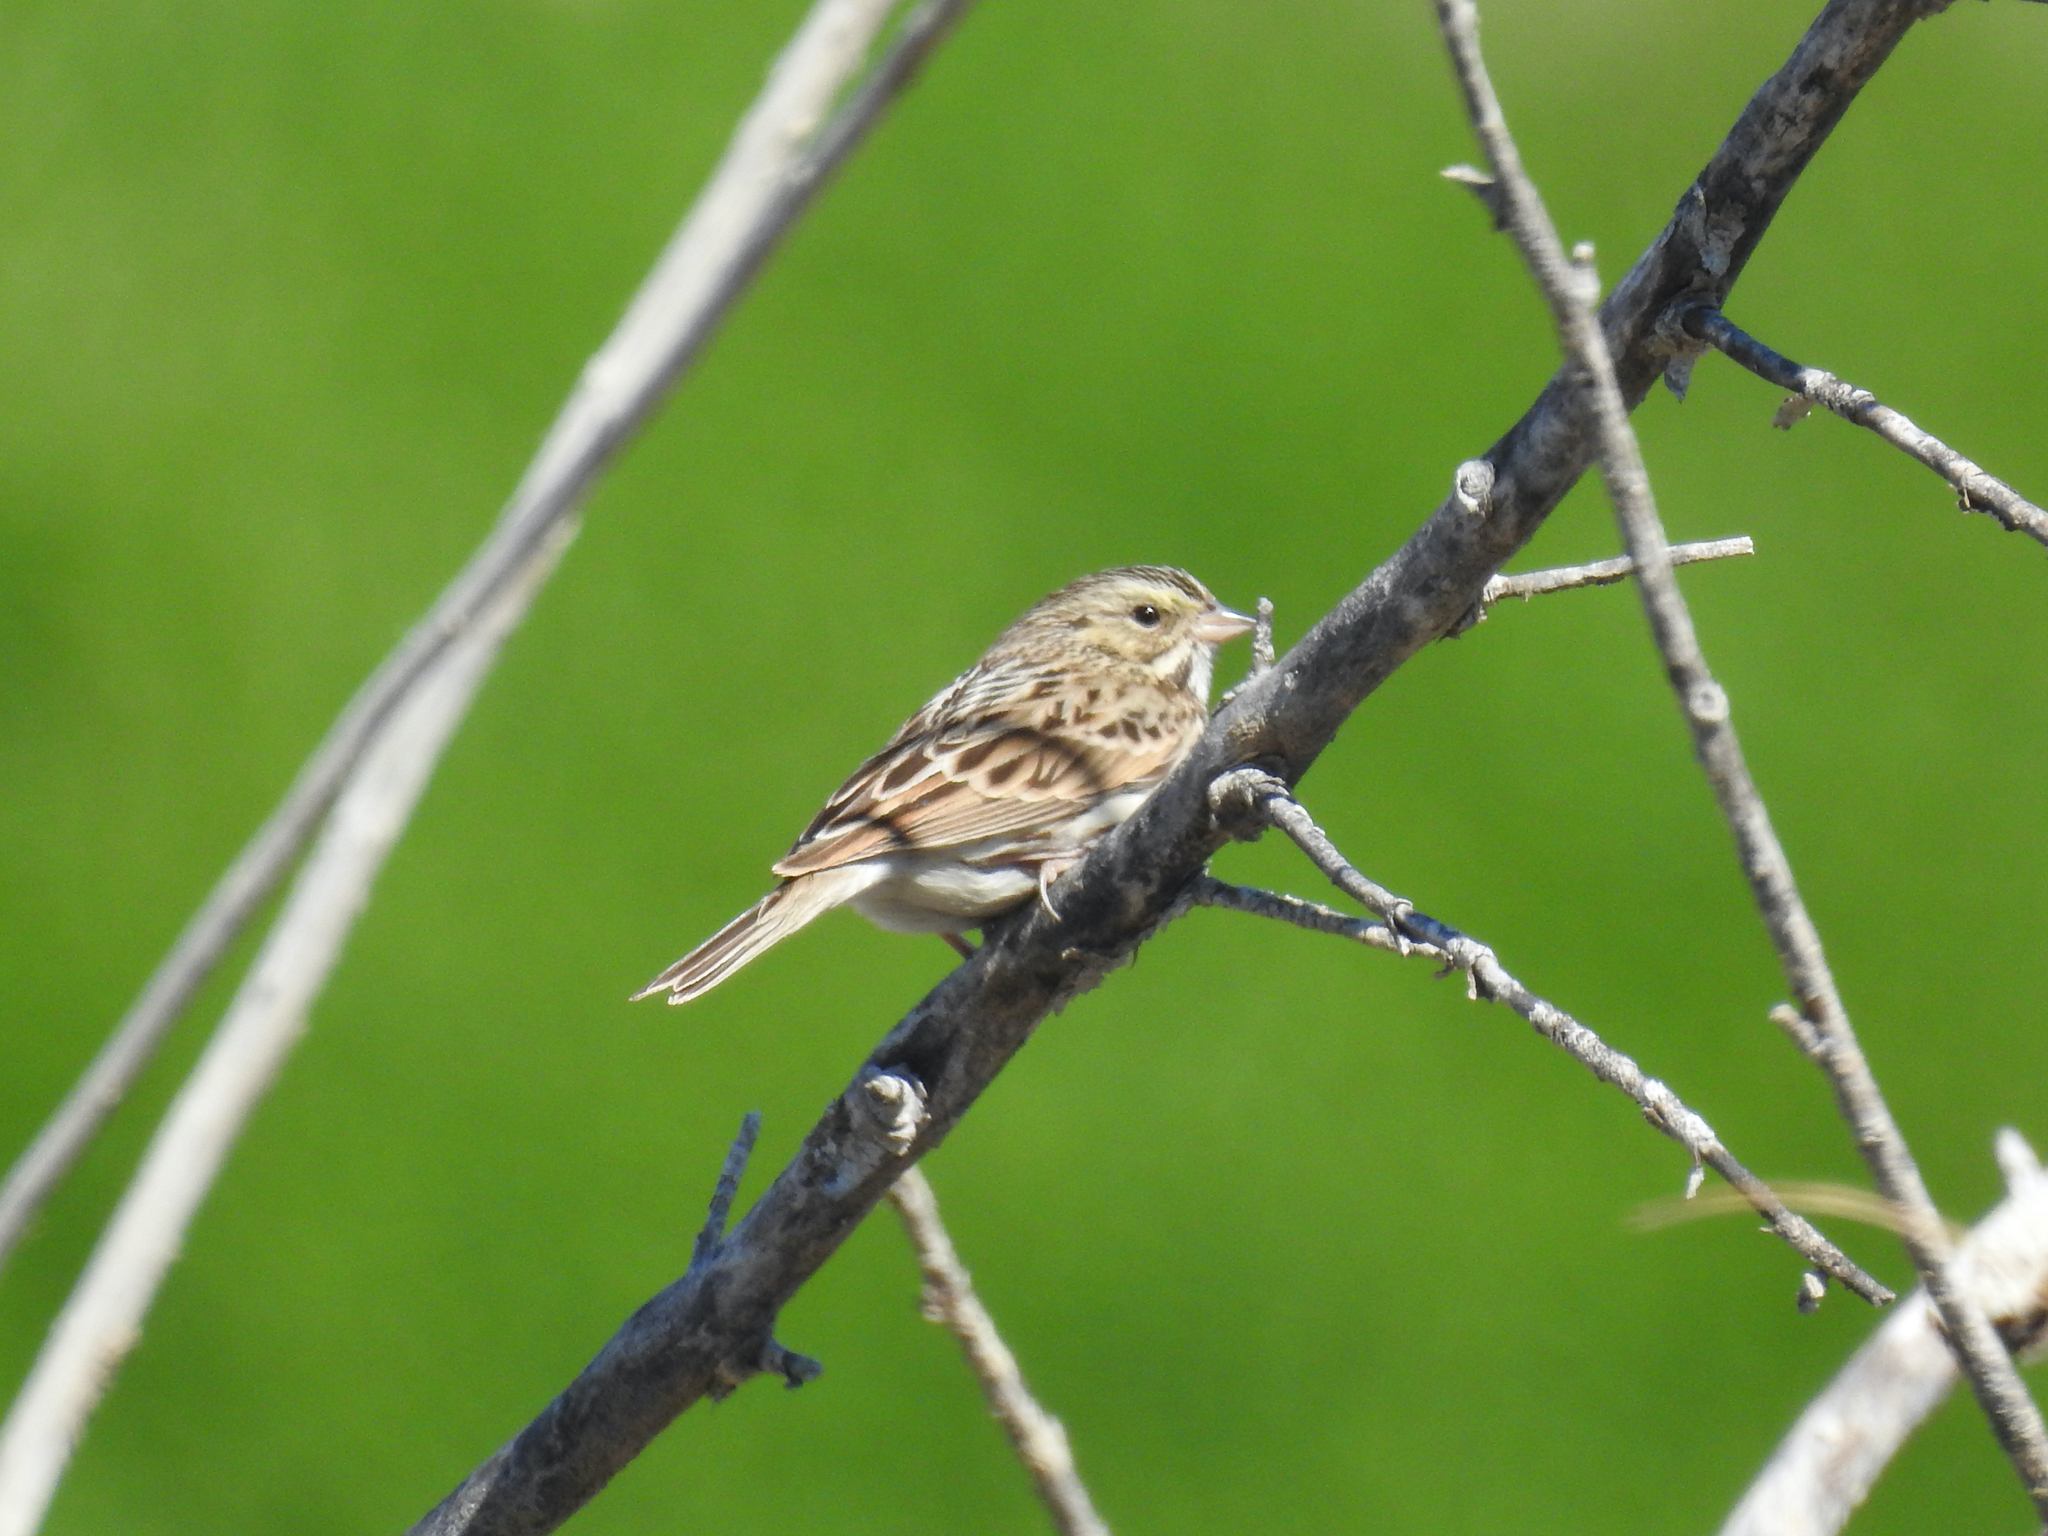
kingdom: Animalia
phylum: Chordata
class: Aves
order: Passeriformes
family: Passerellidae
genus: Passerculus
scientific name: Passerculus sandwichensis
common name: Savannah sparrow
